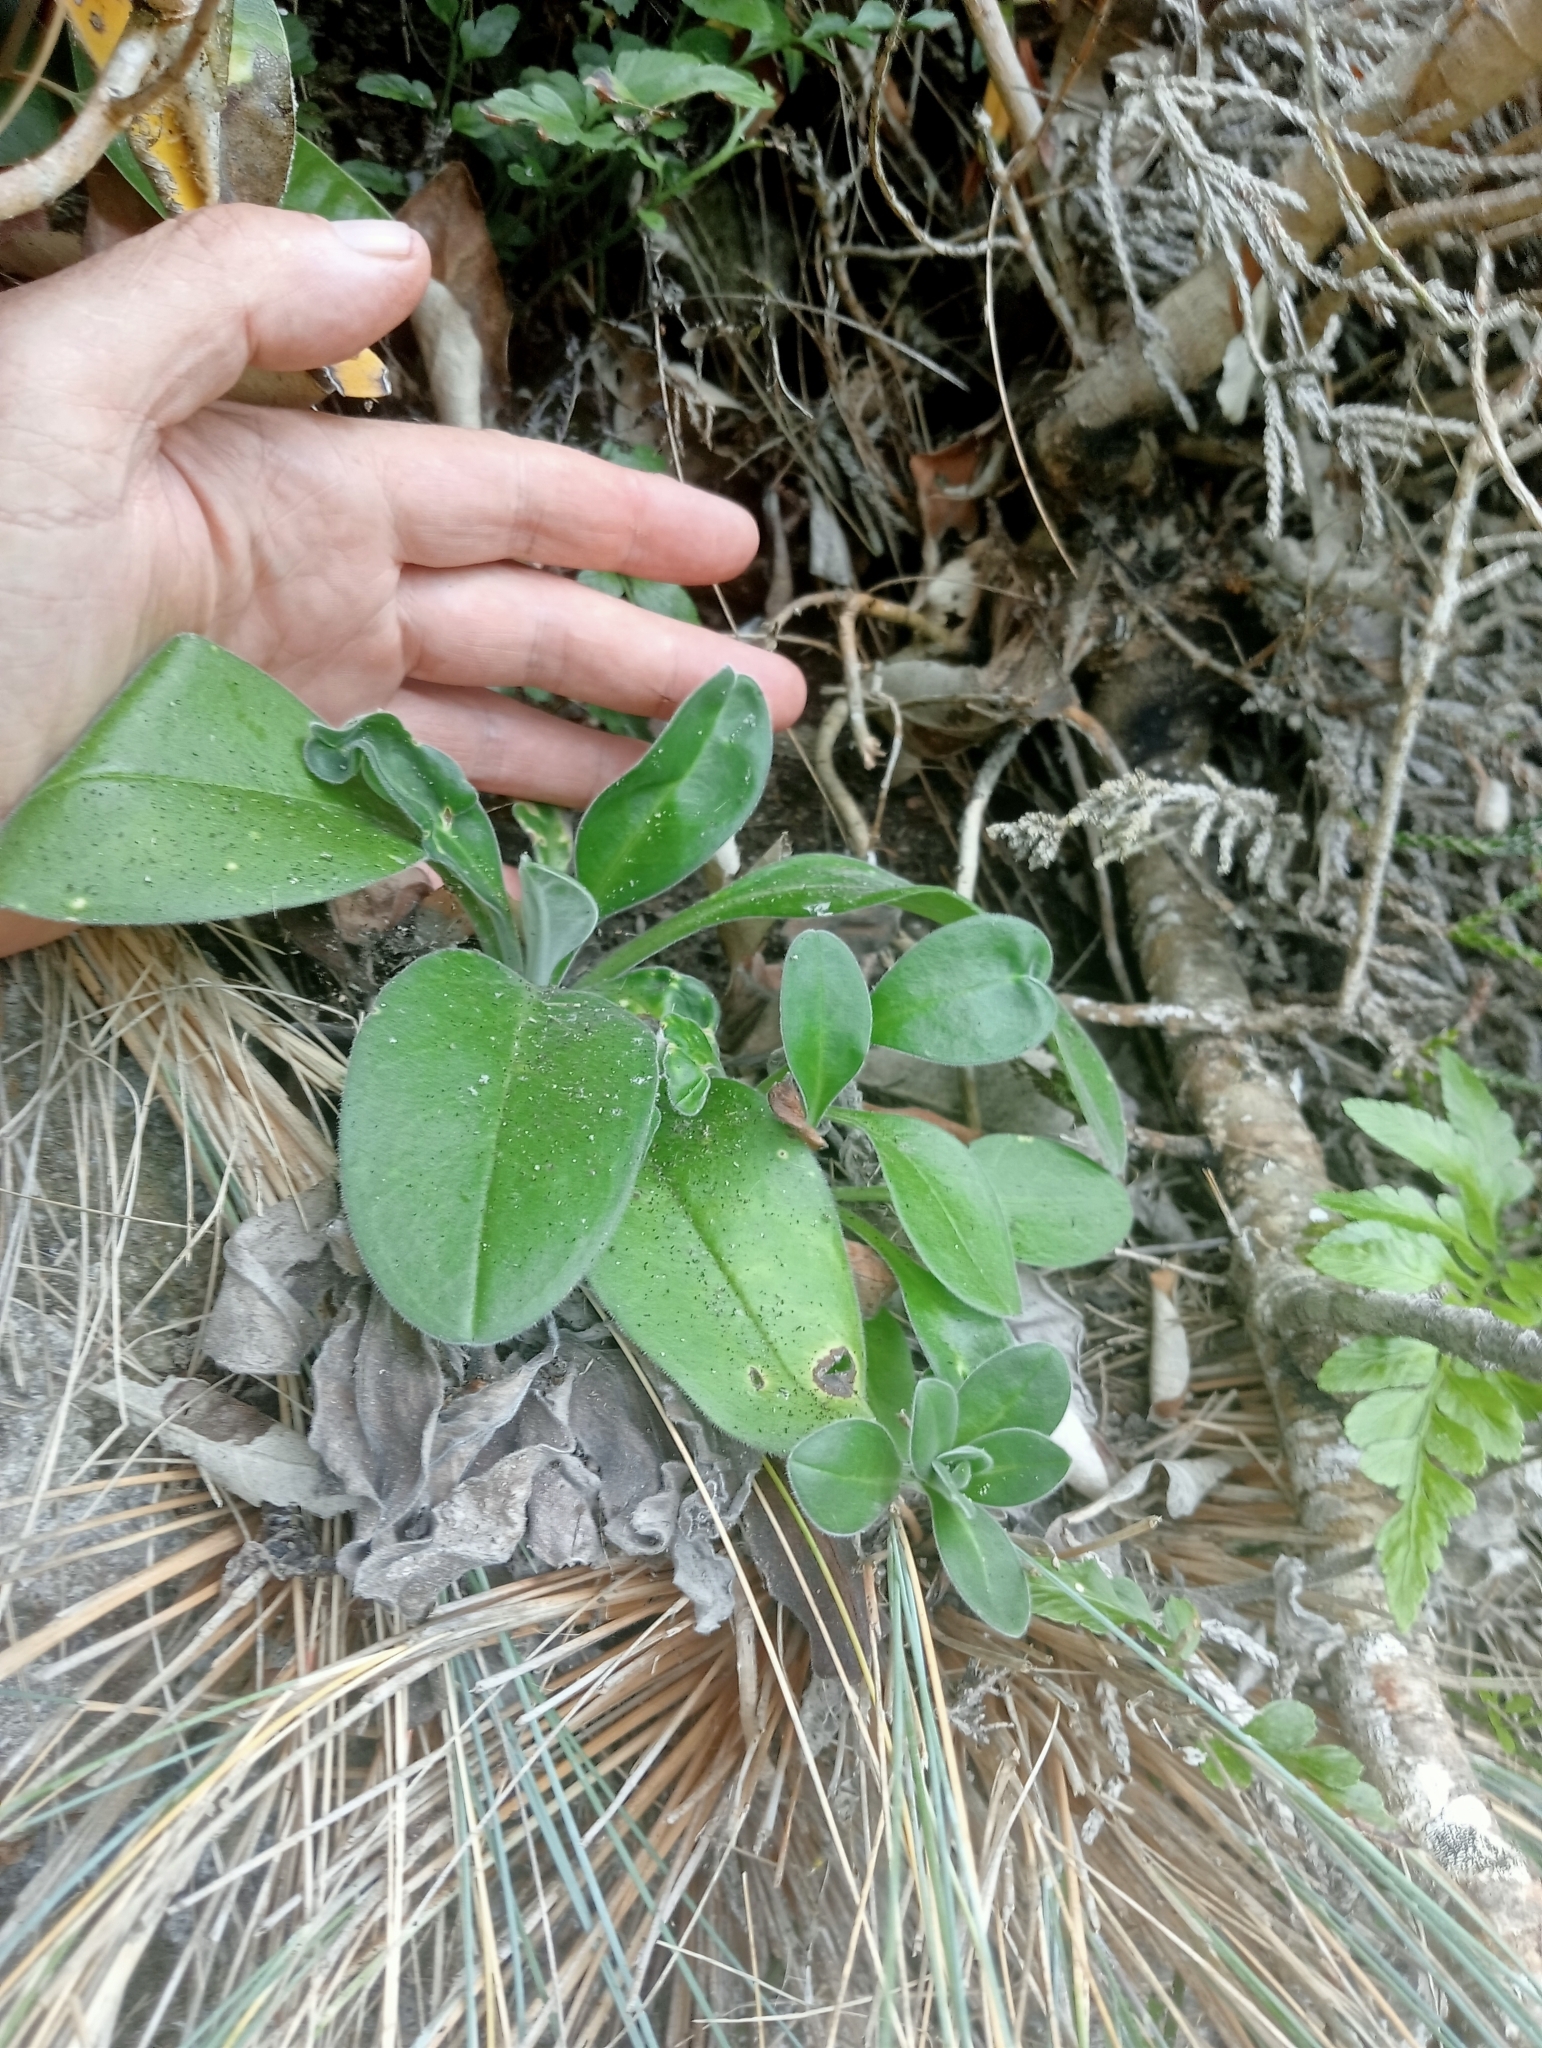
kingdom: Plantae
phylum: Tracheophyta
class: Magnoliopsida
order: Boraginales
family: Boraginaceae
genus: Myosotis
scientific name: Myosotis rakiura
